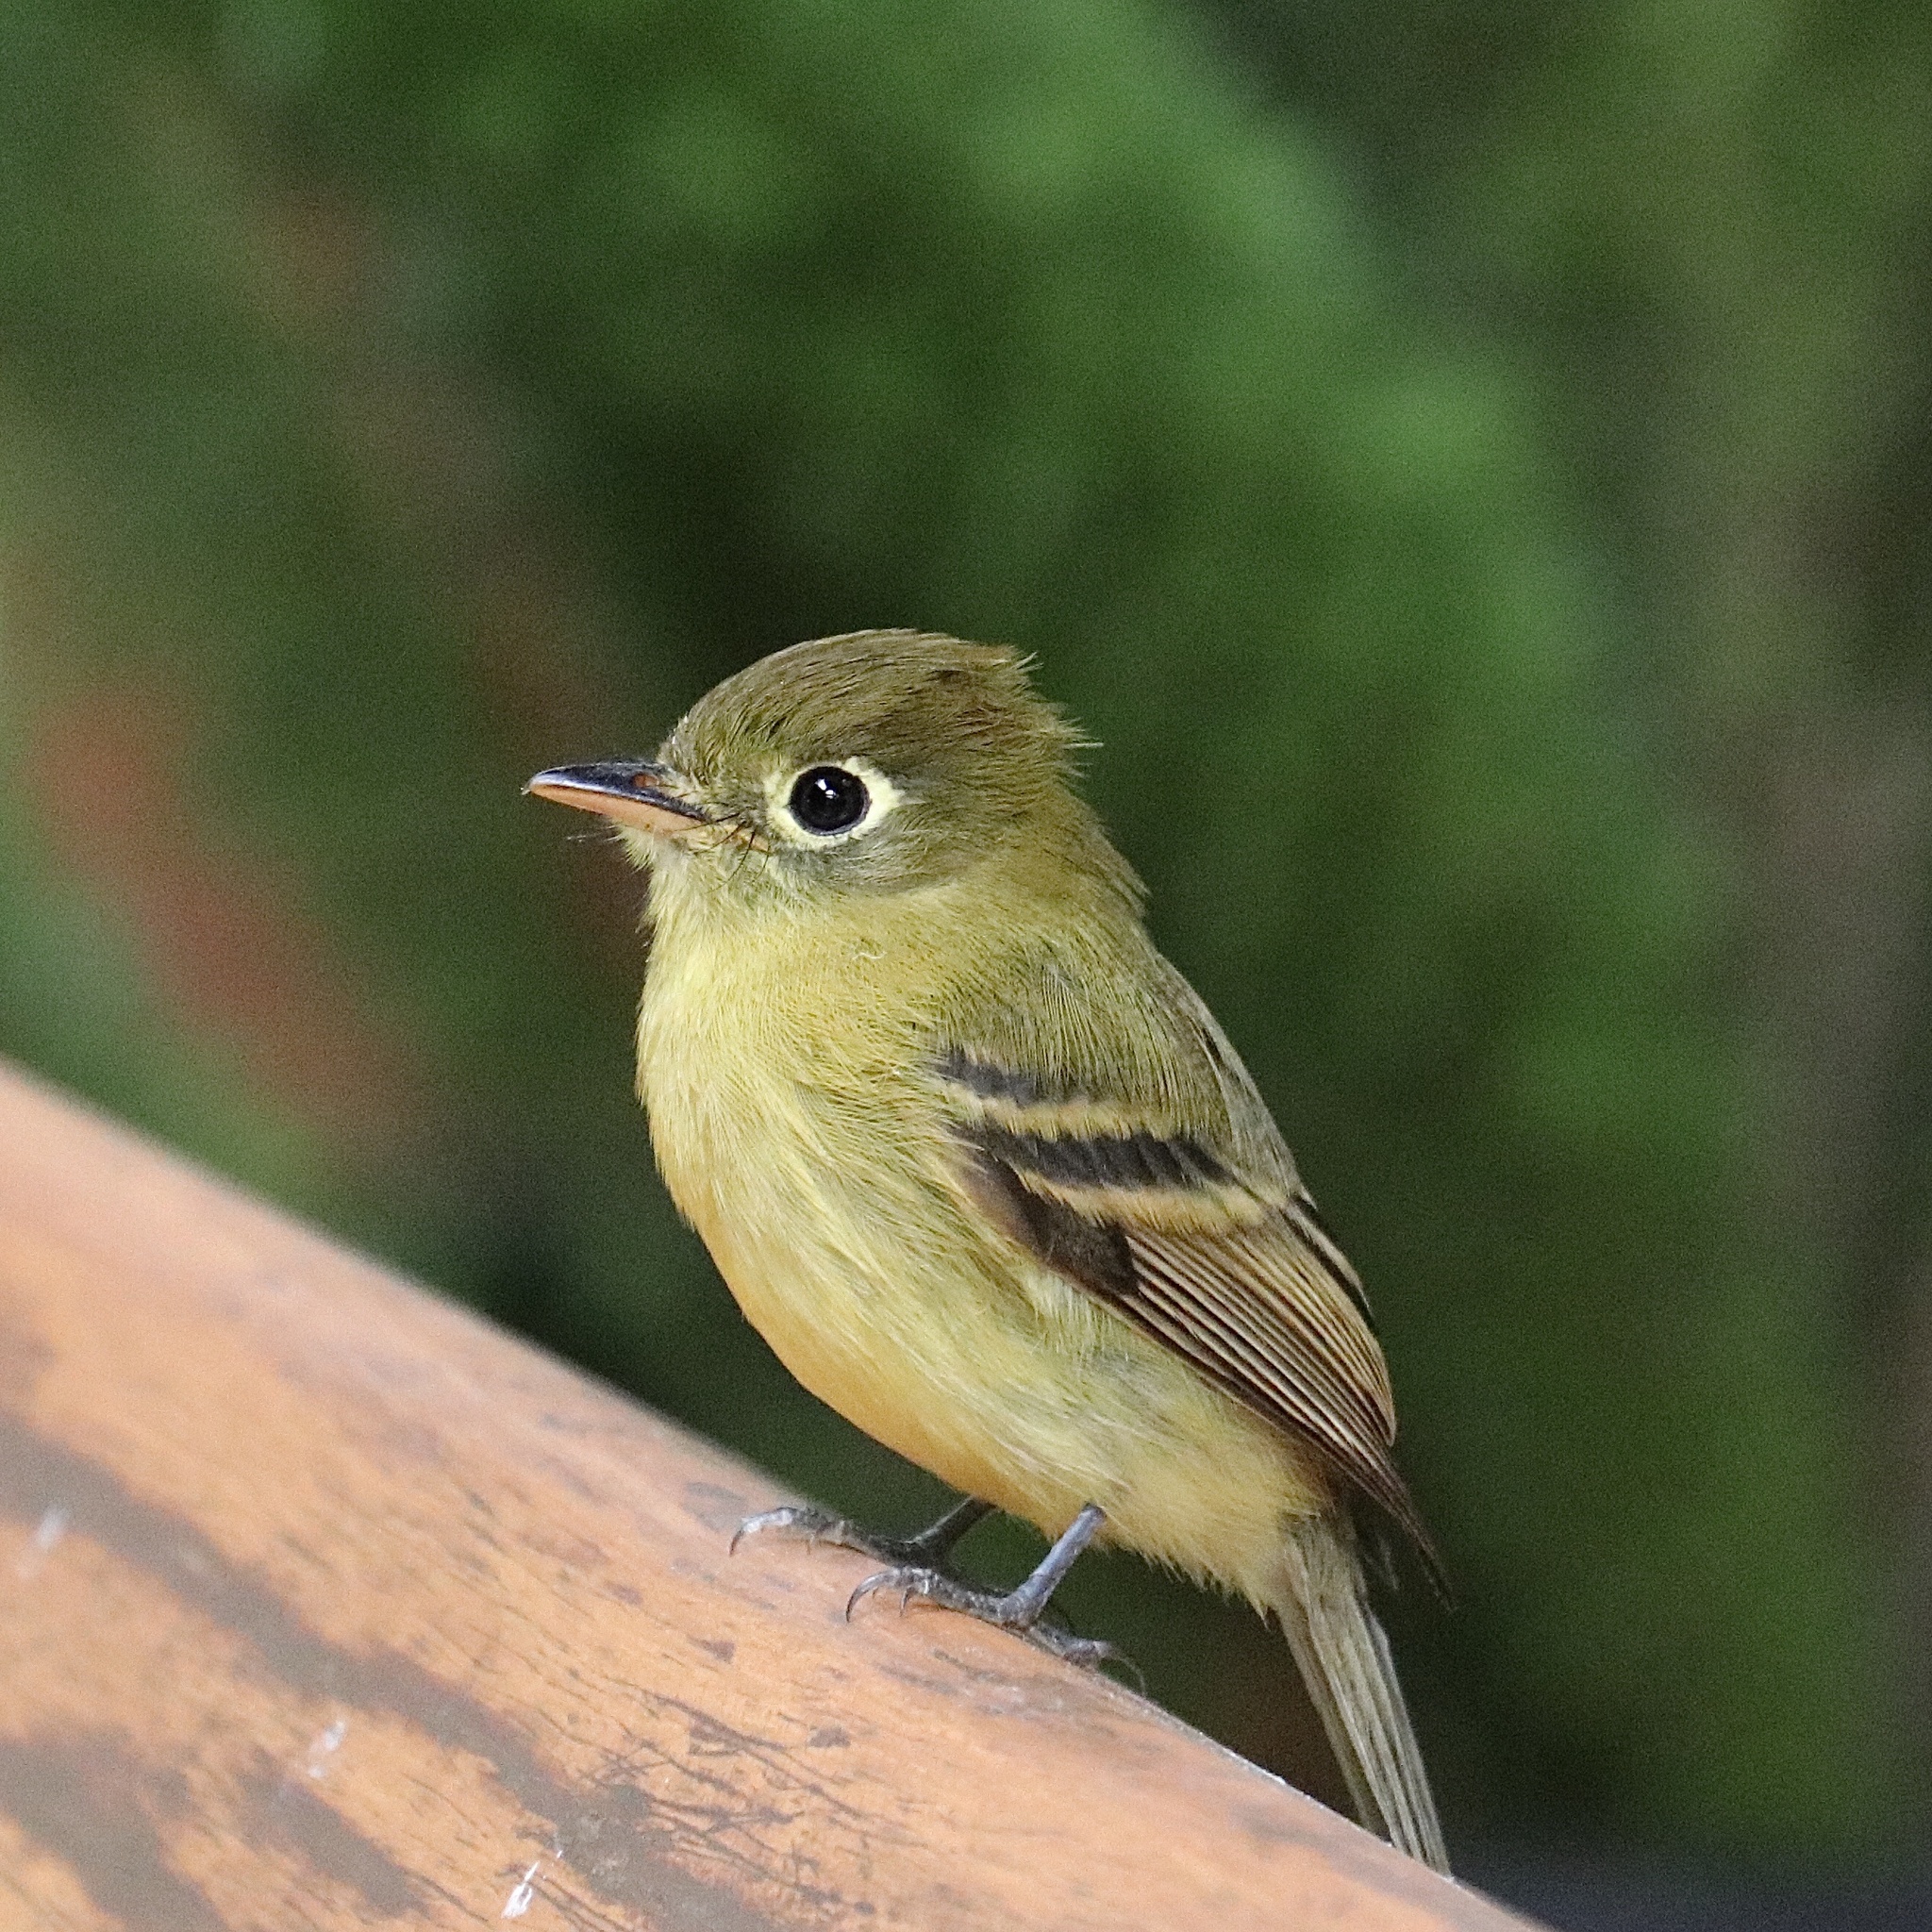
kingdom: Animalia
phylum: Chordata
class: Aves
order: Passeriformes
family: Tyrannidae
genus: Empidonax
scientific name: Empidonax flavescens
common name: Yellowish flycatcher
